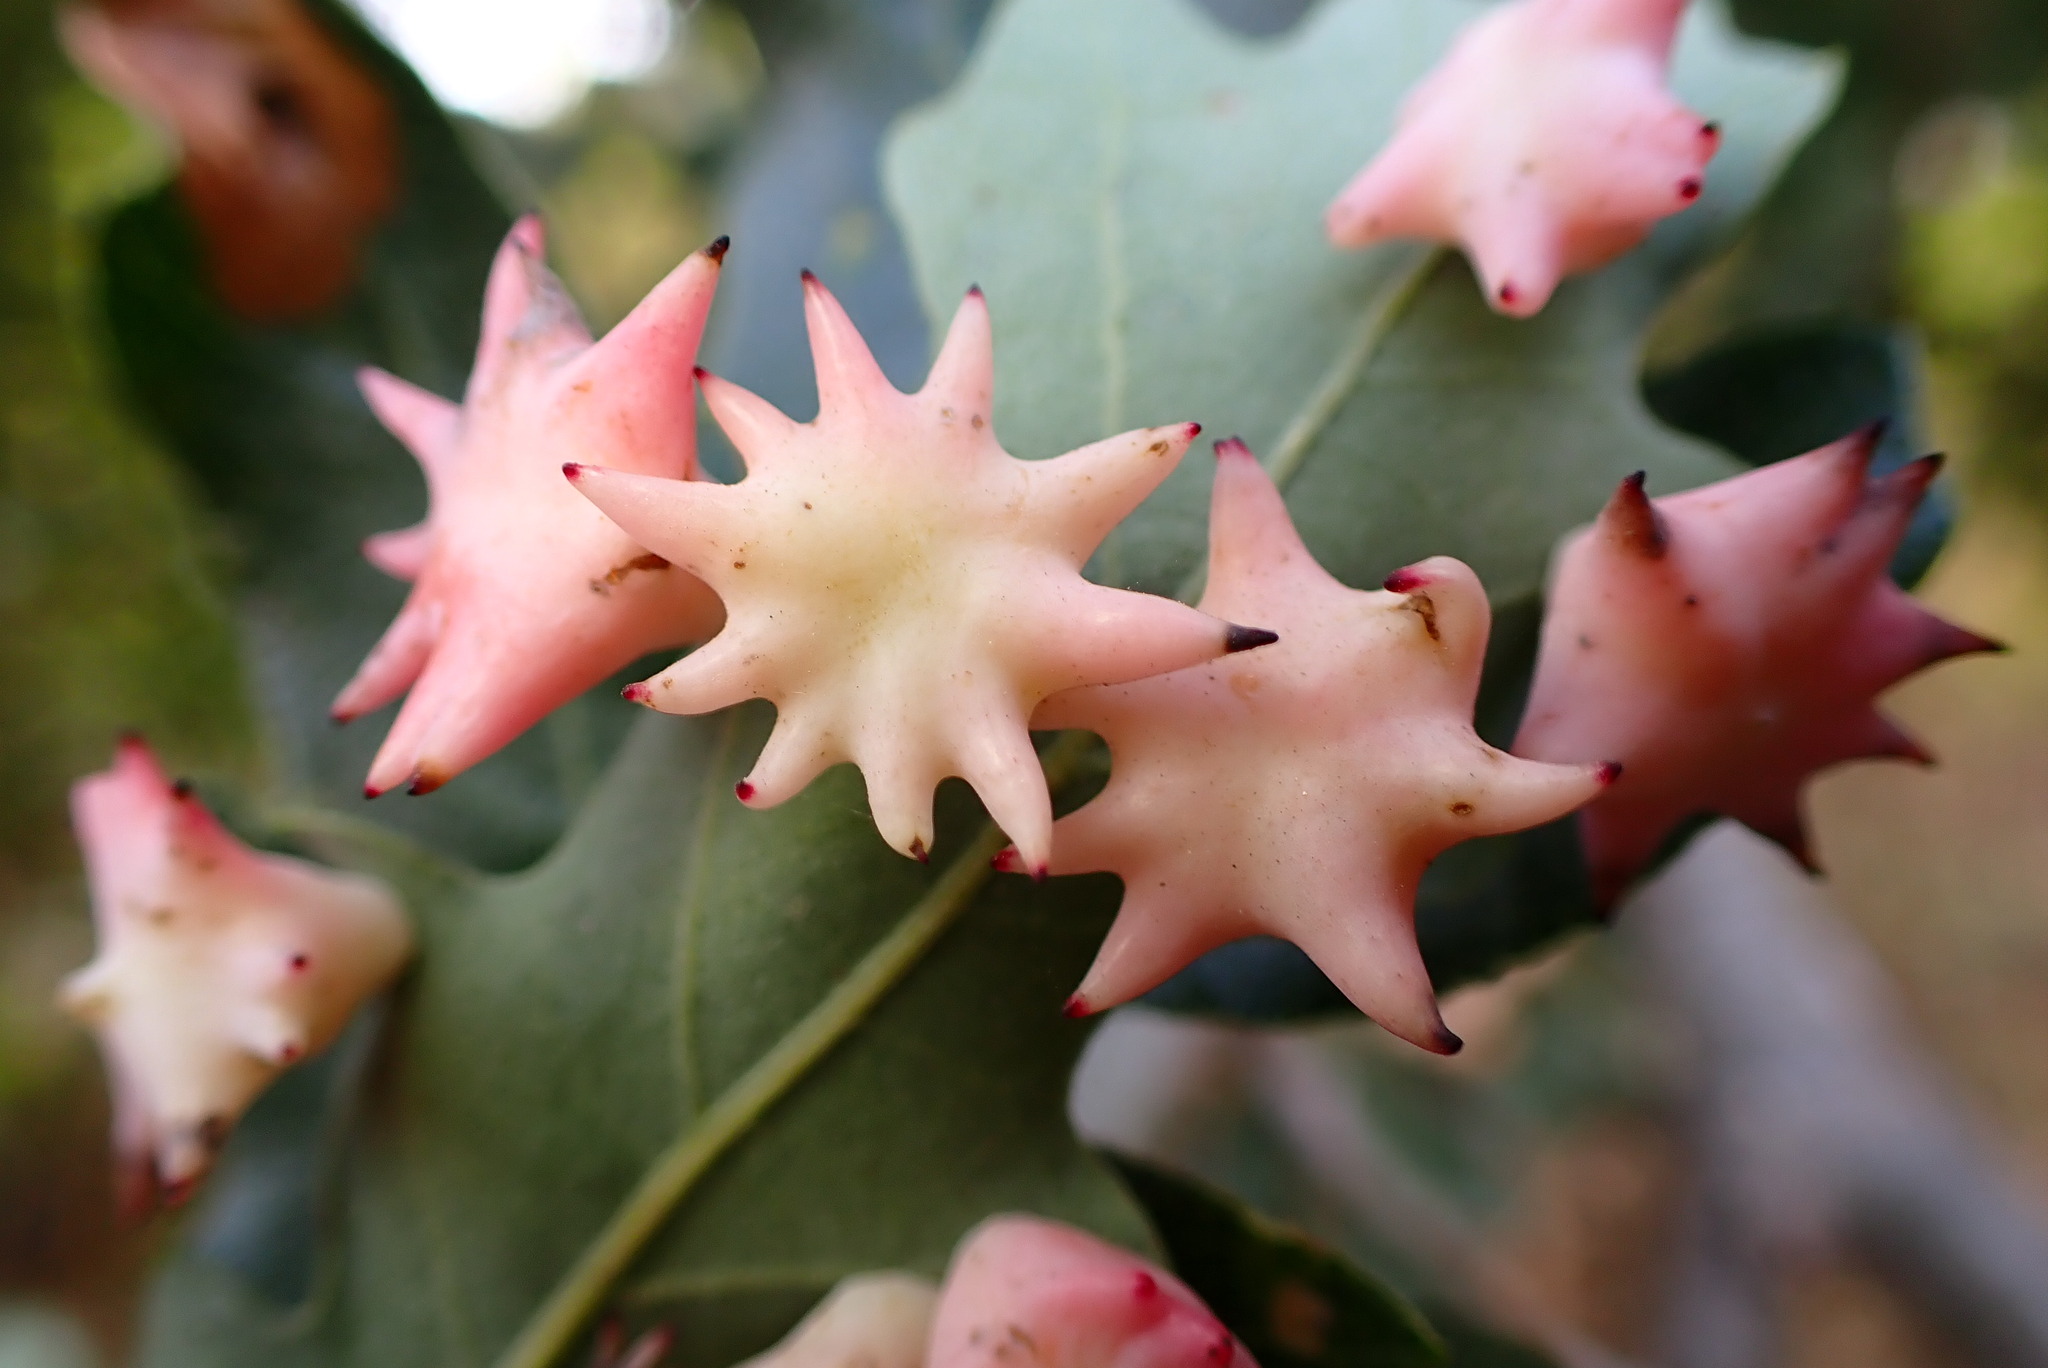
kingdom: Animalia
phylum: Arthropoda
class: Insecta
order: Hymenoptera
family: Cynipidae
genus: Cynips
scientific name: Cynips douglasi
